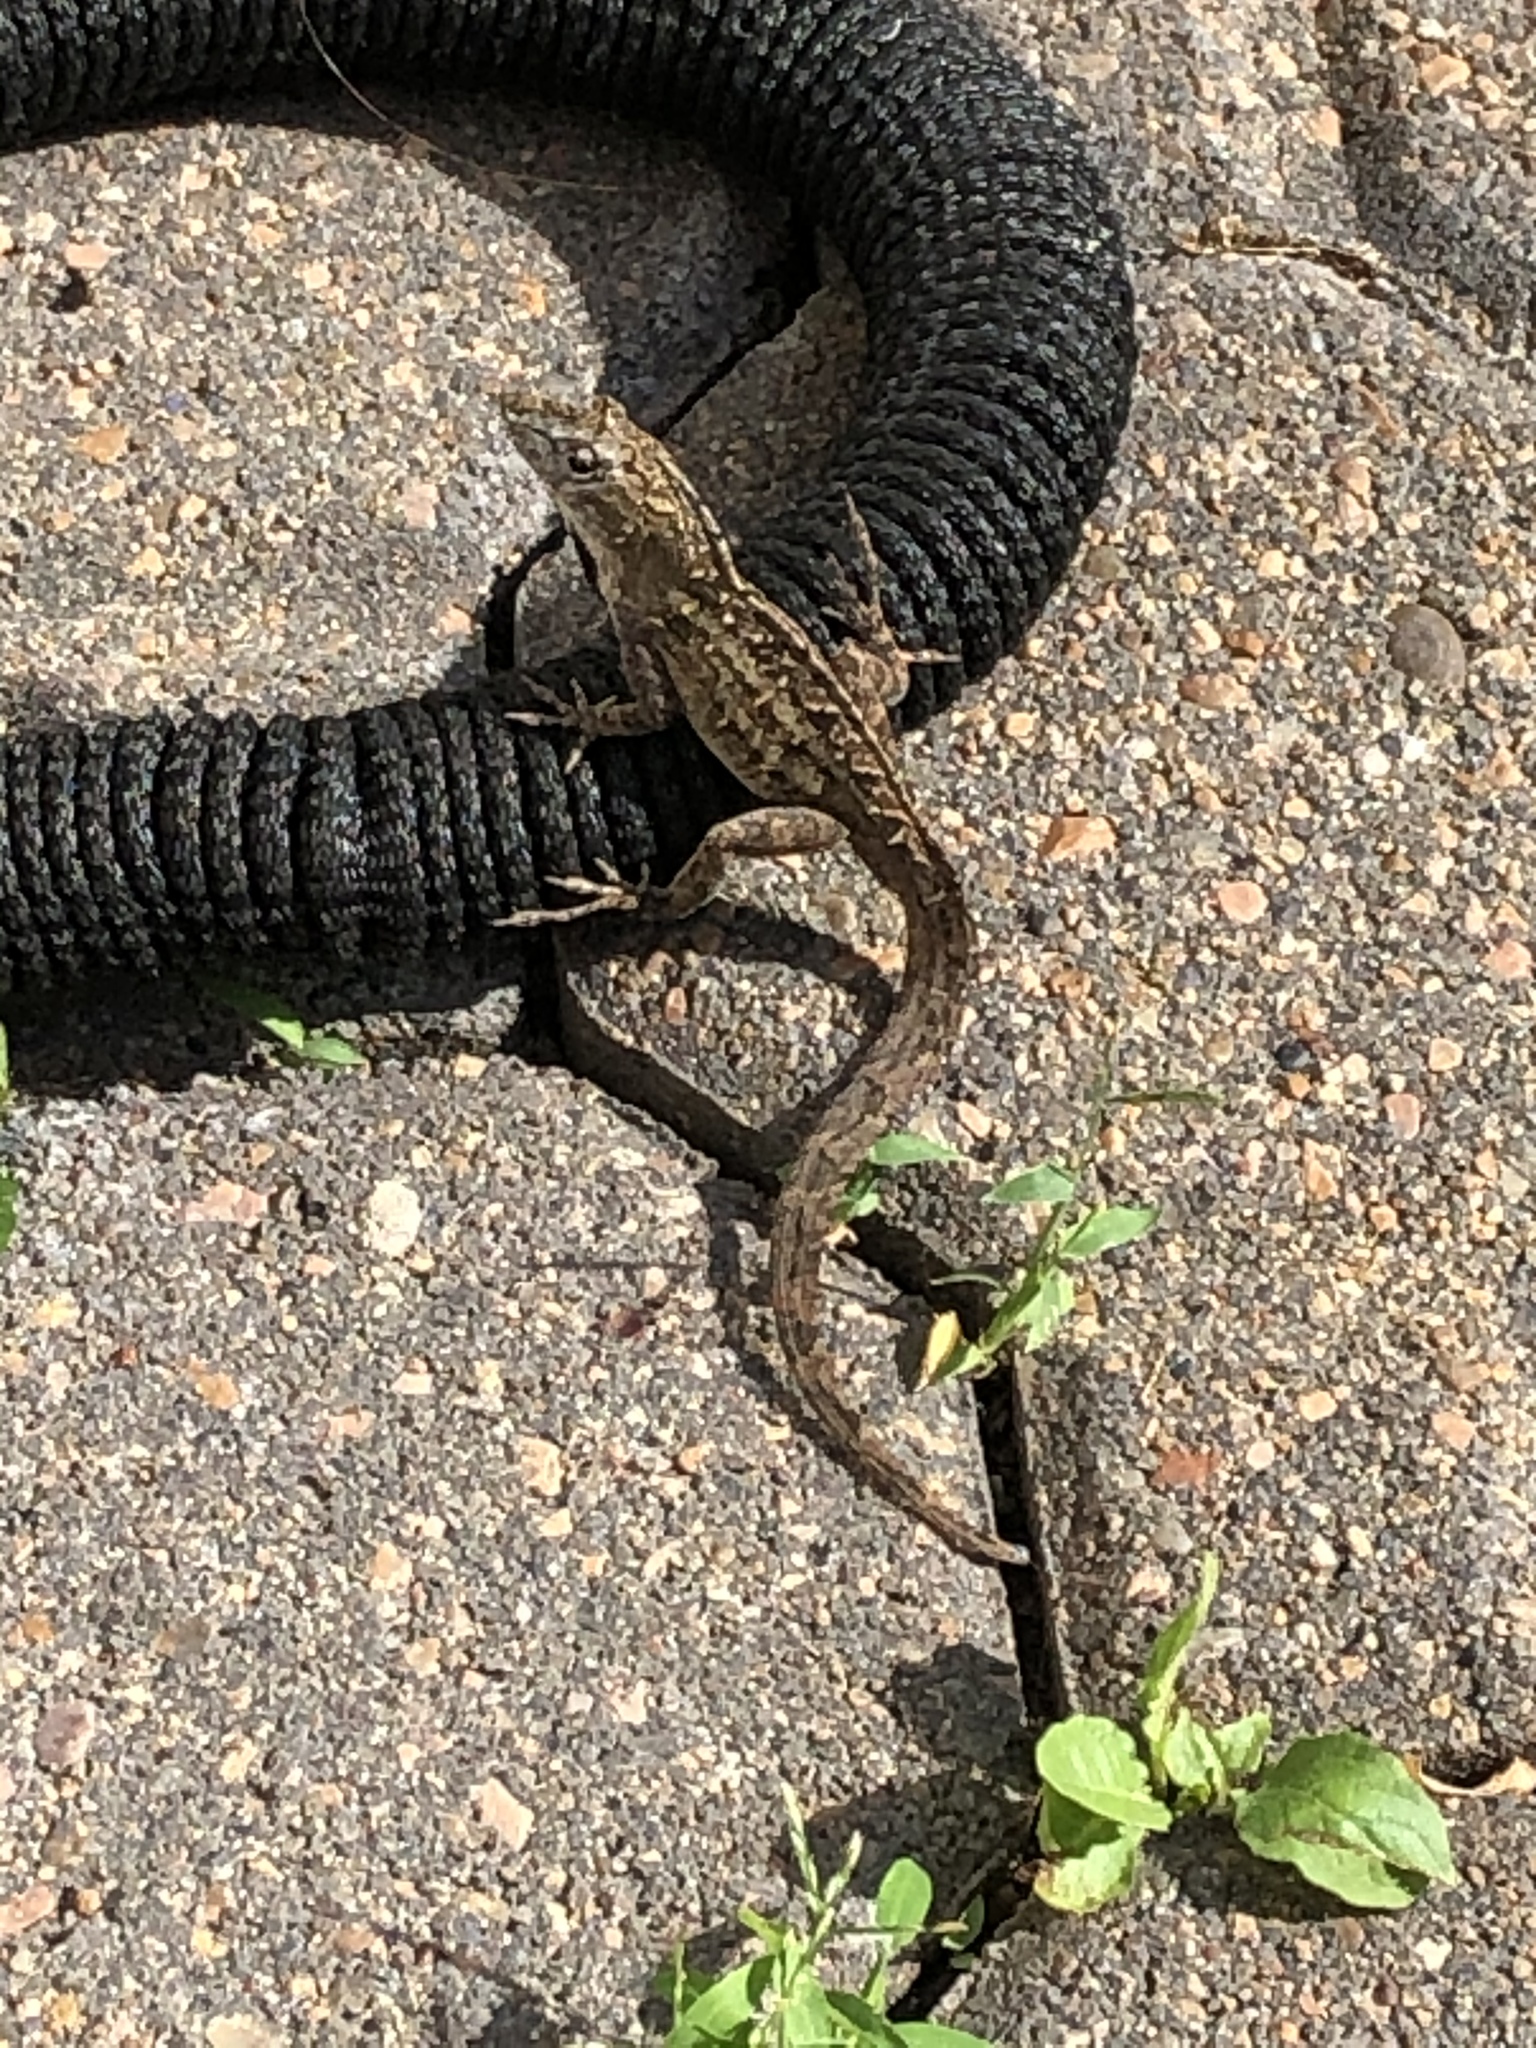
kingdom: Animalia
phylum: Chordata
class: Squamata
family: Dactyloidae
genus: Anolis
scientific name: Anolis sagrei
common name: Brown anole
